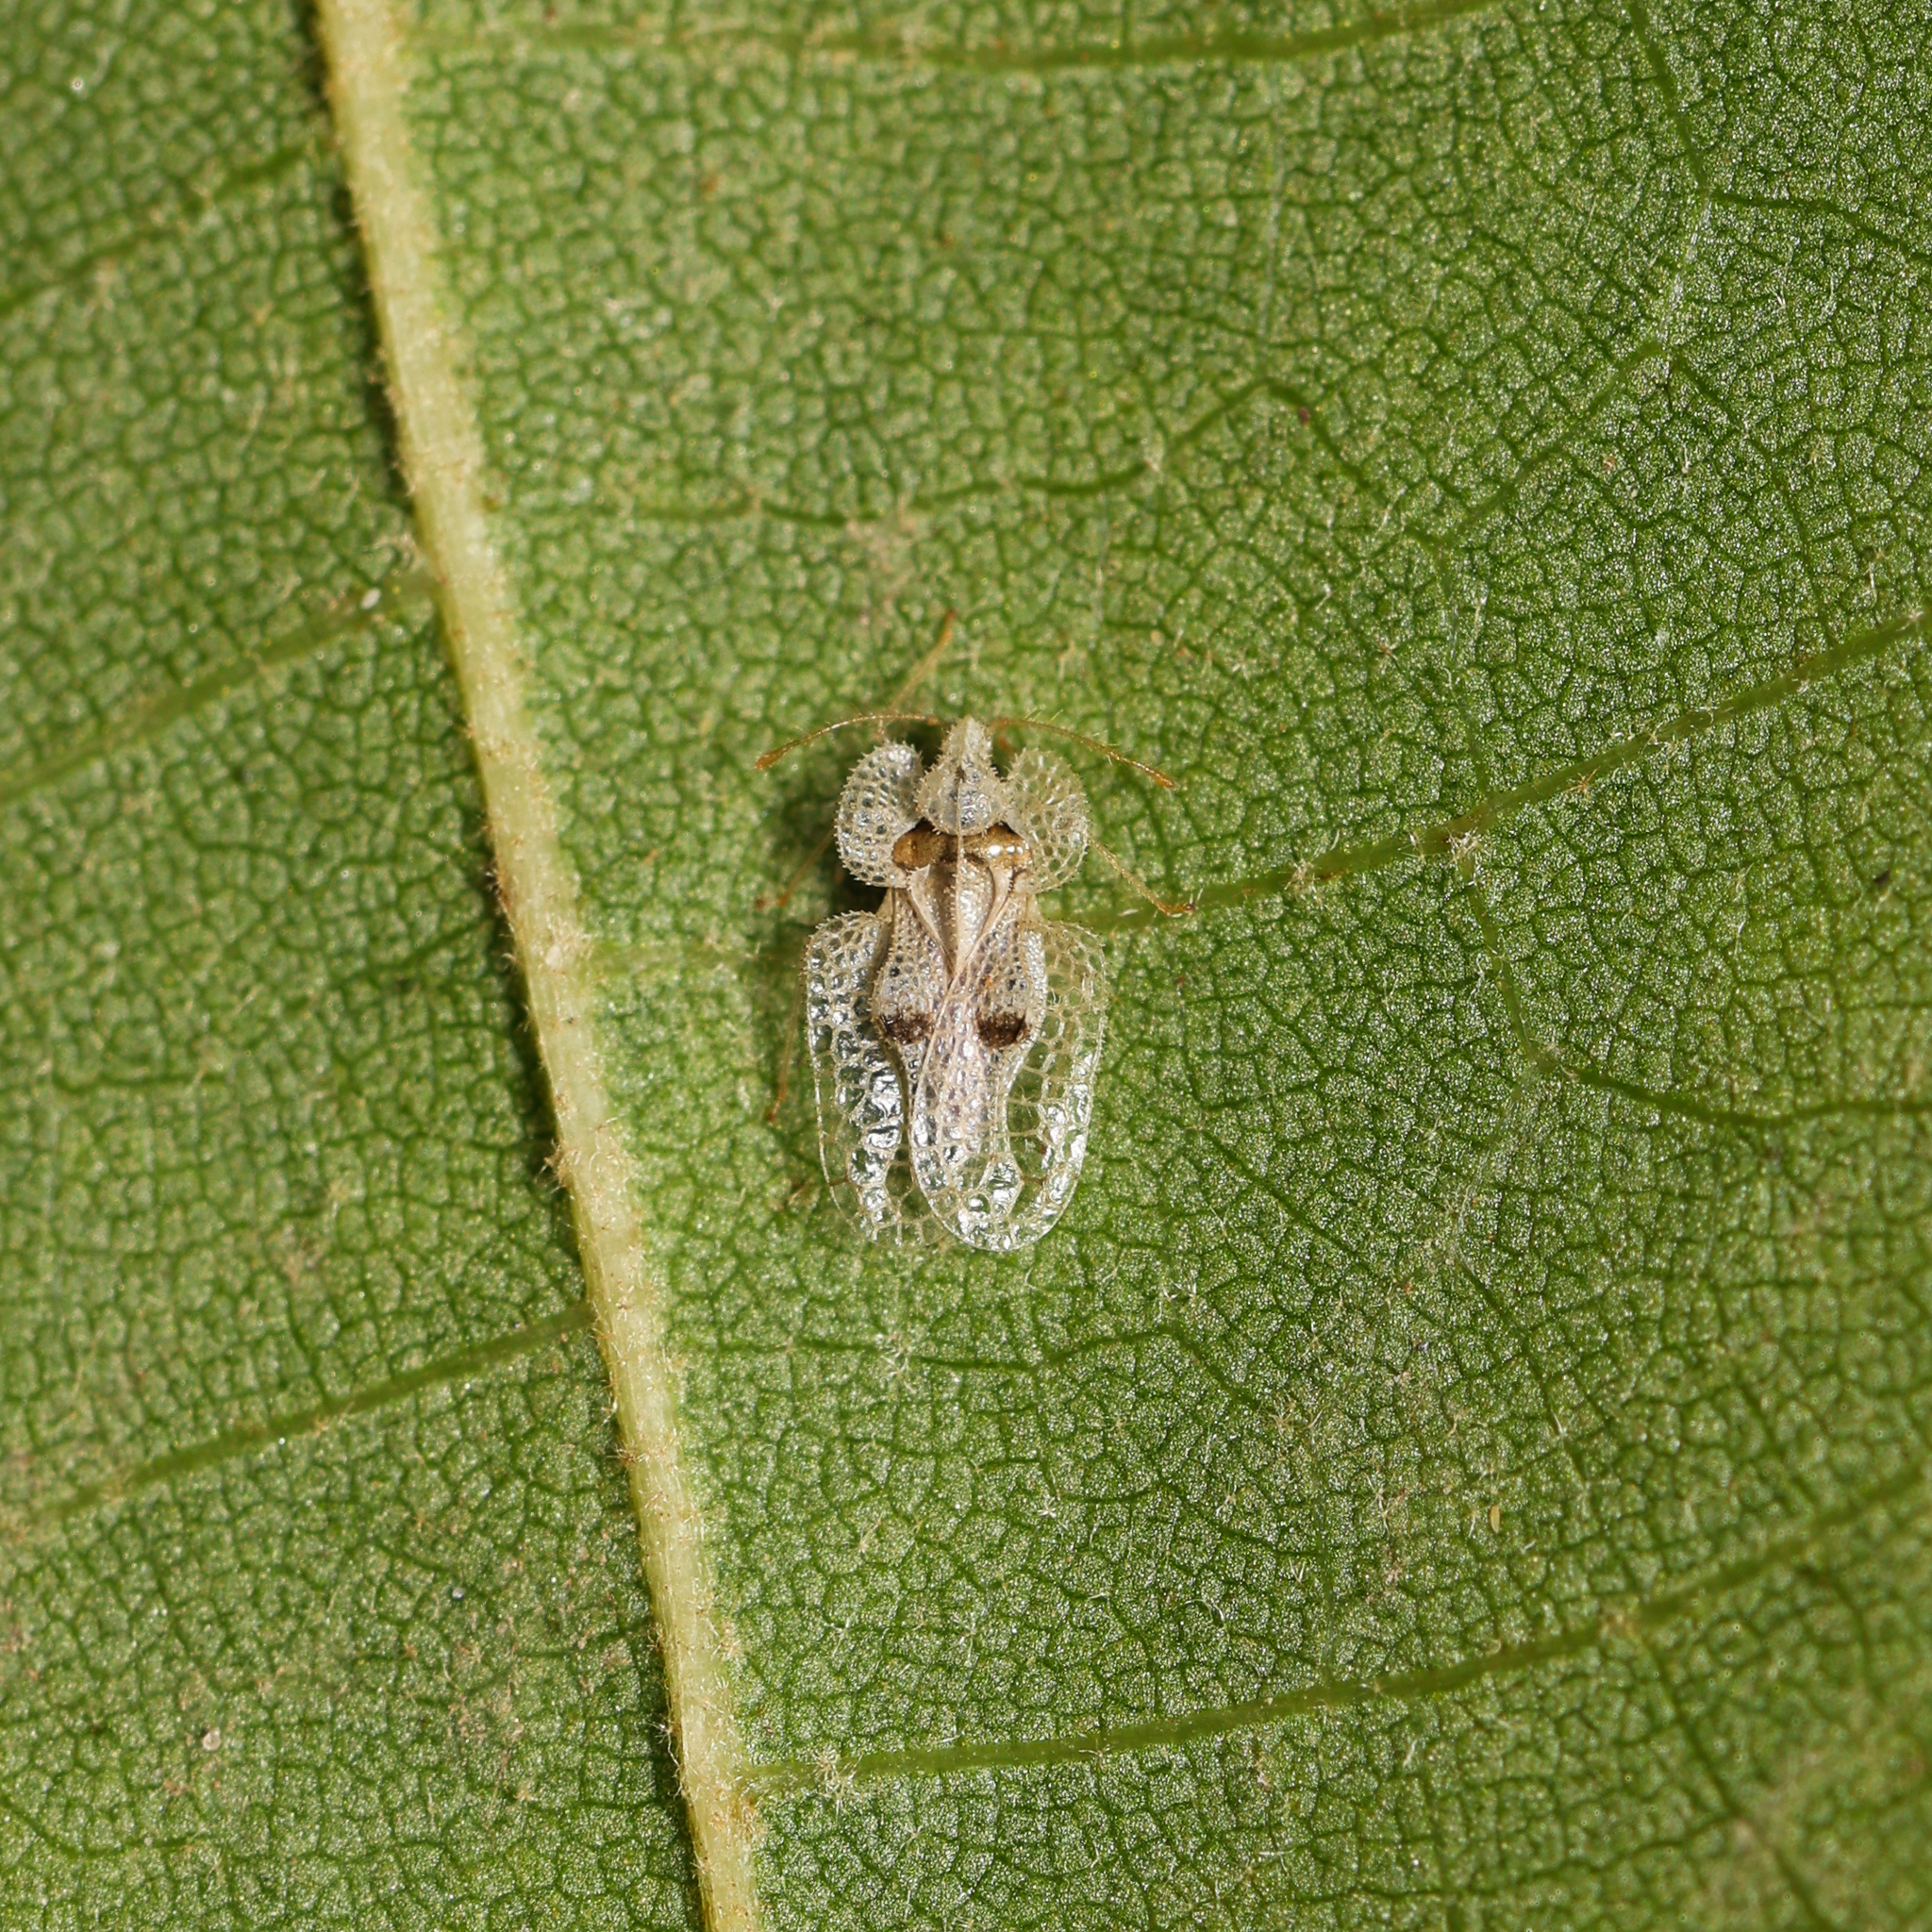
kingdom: Animalia
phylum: Arthropoda
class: Insecta
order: Hemiptera
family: Tingidae
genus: Corythucha
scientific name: Corythucha ciliata
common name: Sycamore lace bug
